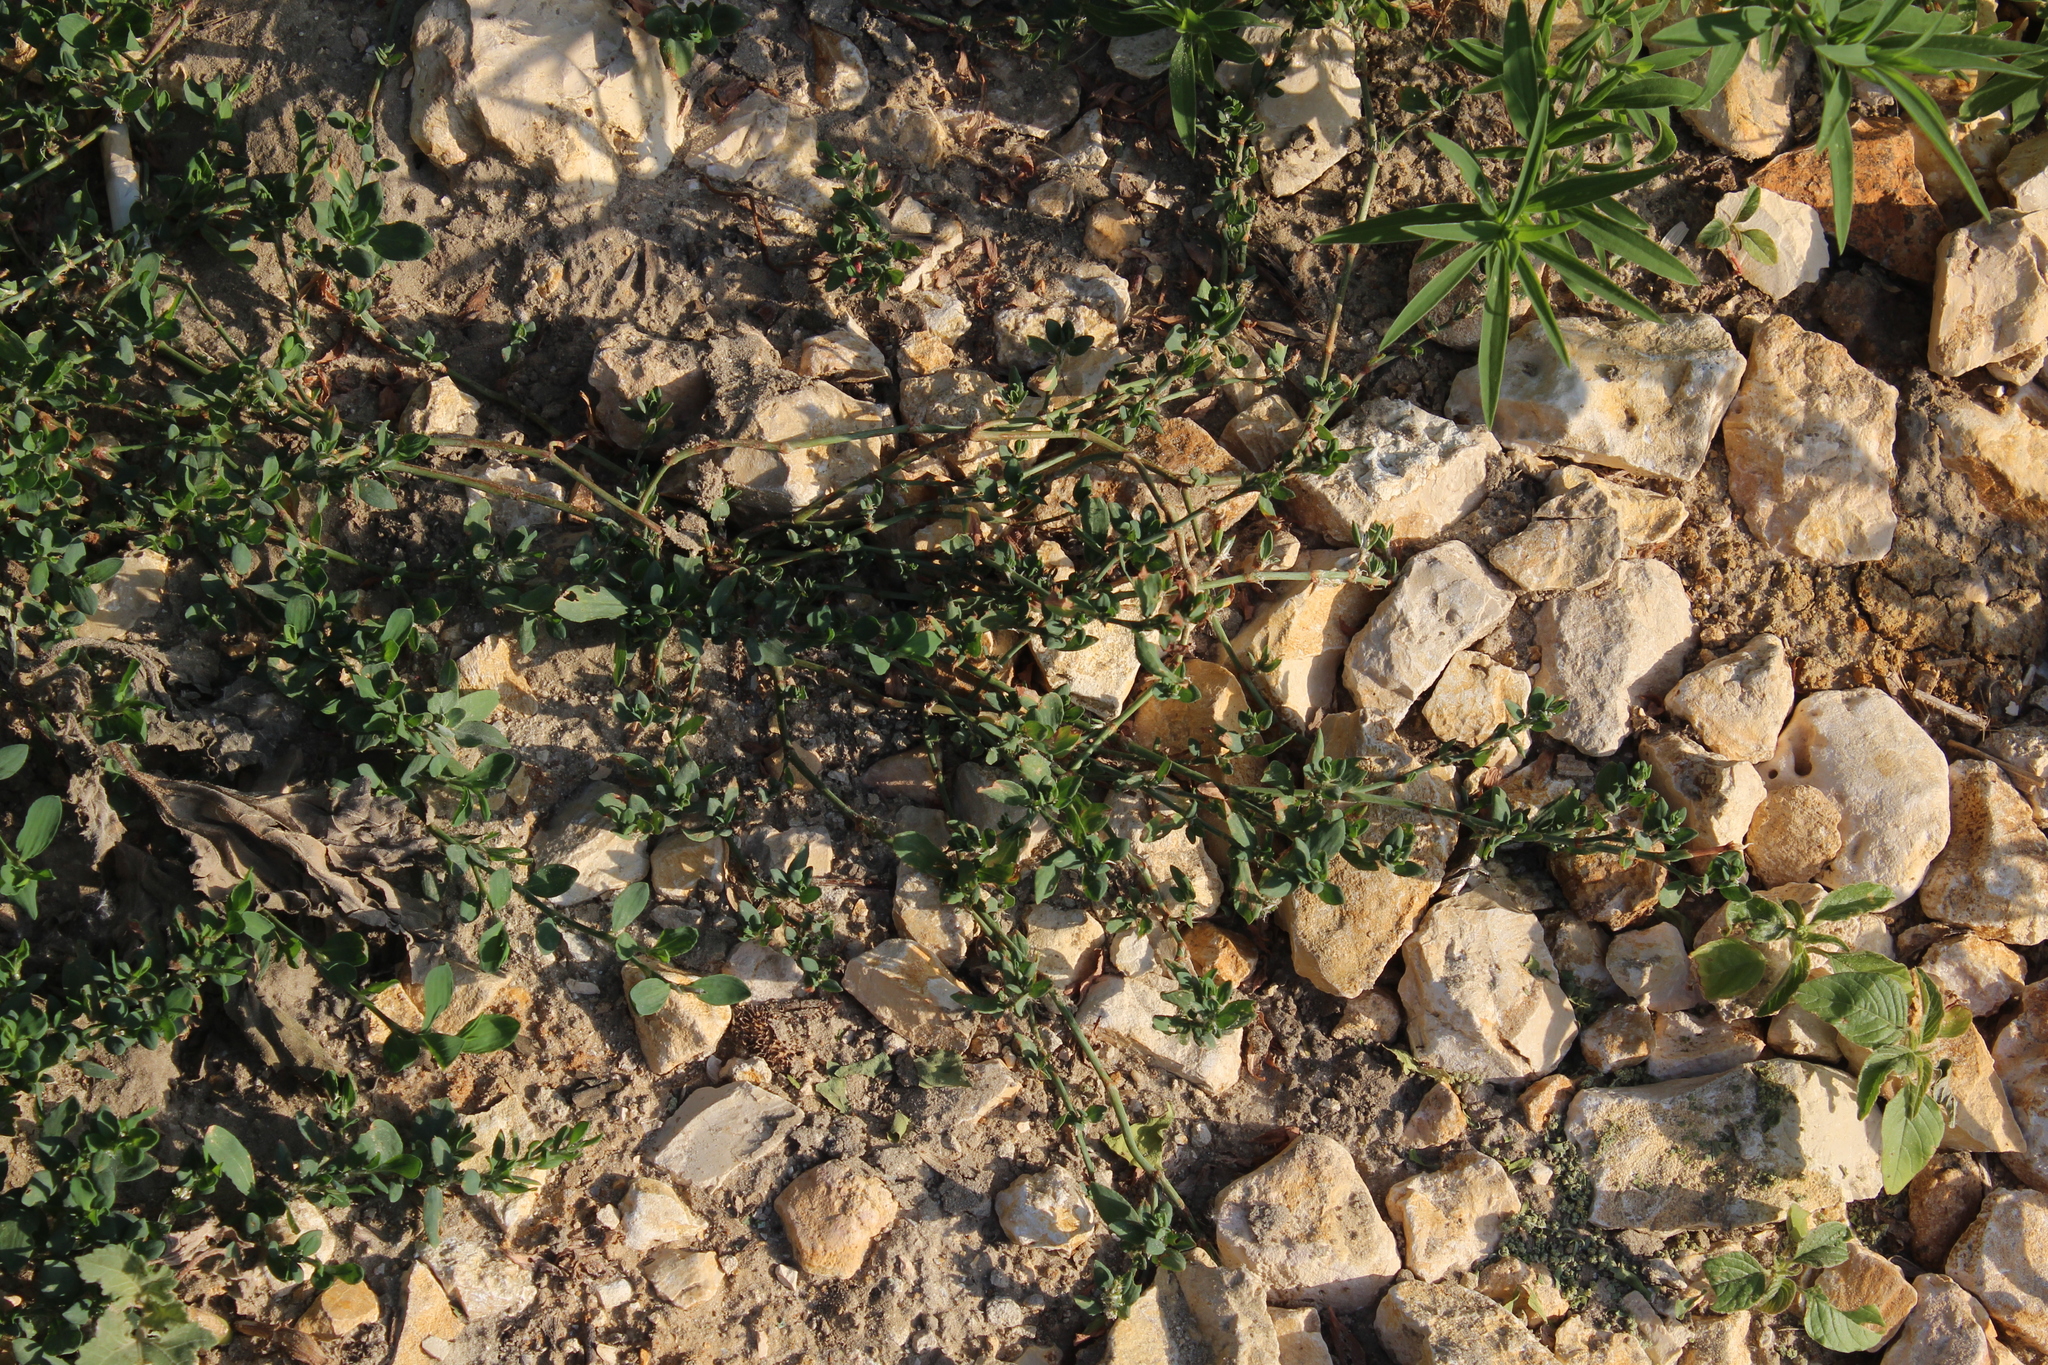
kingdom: Plantae
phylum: Tracheophyta
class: Magnoliopsida
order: Caryophyllales
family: Polygonaceae
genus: Polygonum
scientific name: Polygonum
